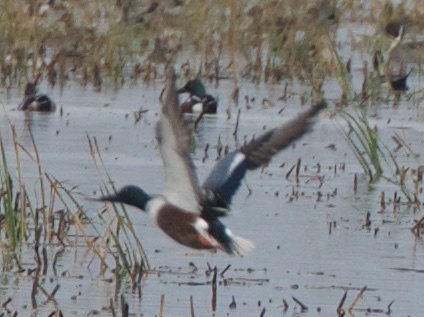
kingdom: Animalia
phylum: Chordata
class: Aves
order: Anseriformes
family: Anatidae
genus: Spatula
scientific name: Spatula clypeata
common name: Northern shoveler
